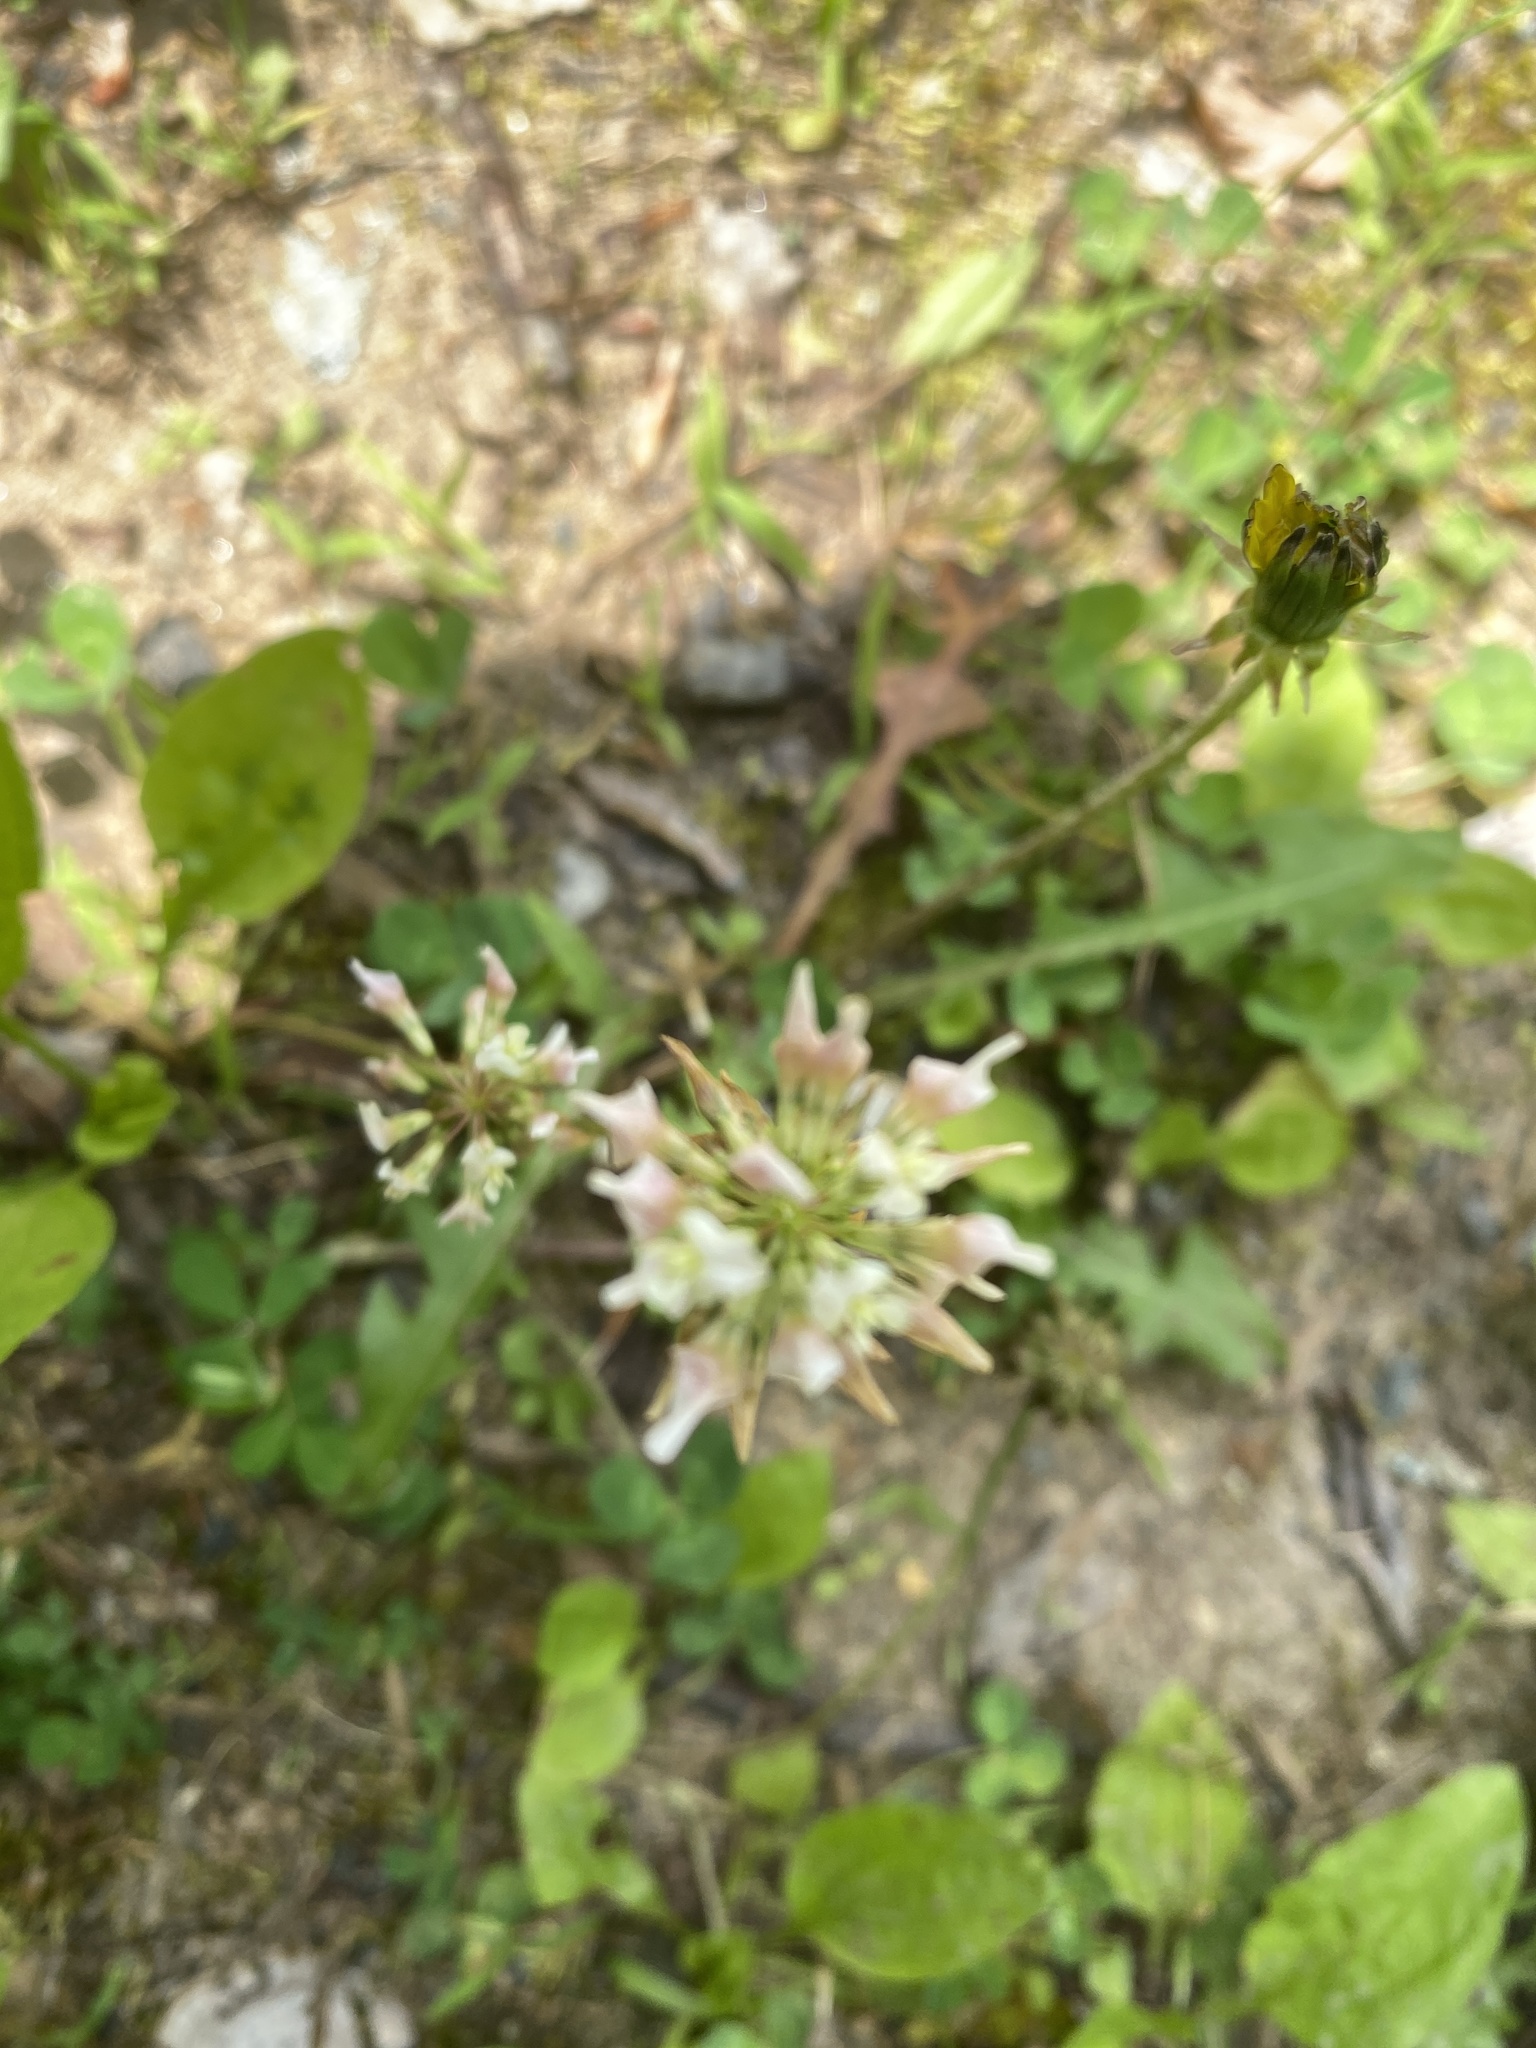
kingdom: Plantae
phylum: Tracheophyta
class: Magnoliopsida
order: Fabales
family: Fabaceae
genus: Trifolium
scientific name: Trifolium repens
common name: White clover
